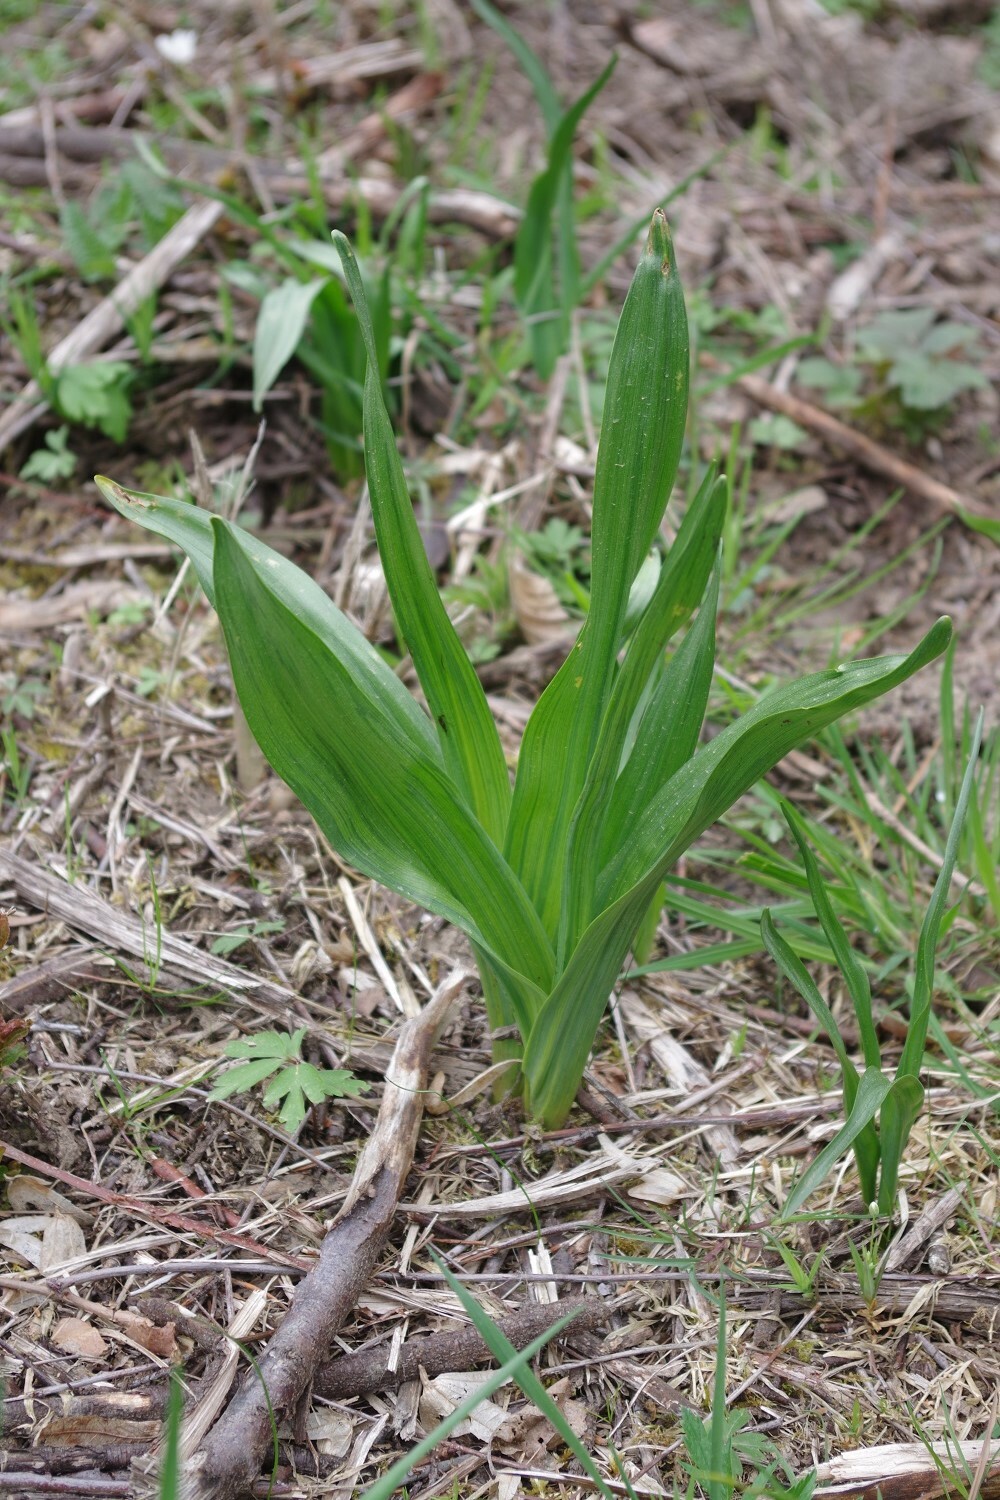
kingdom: Plantae
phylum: Tracheophyta
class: Liliopsida
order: Liliales
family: Colchicaceae
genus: Colchicum
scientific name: Colchicum autumnale
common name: Autumn crocus
